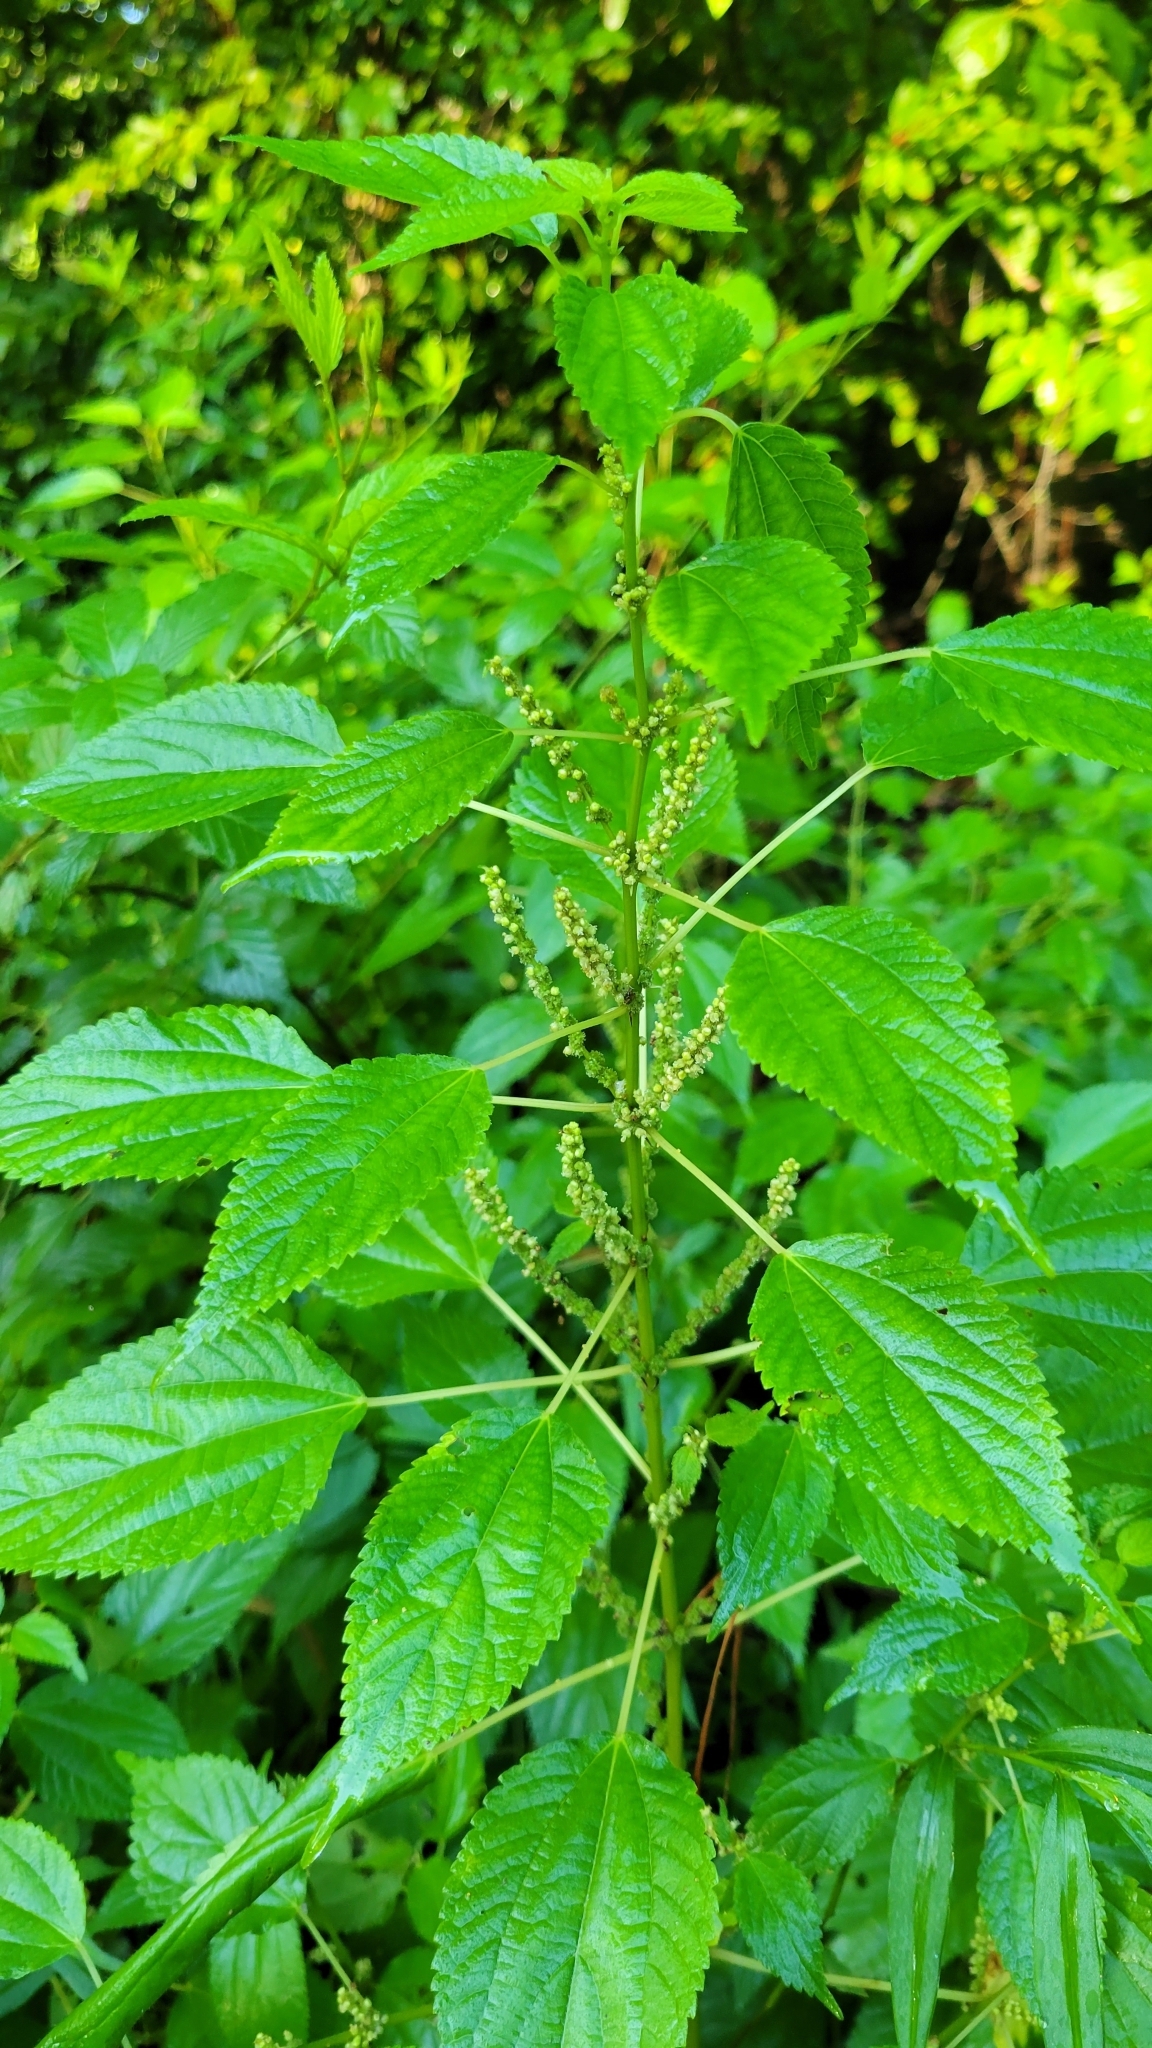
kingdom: Plantae
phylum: Tracheophyta
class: Magnoliopsida
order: Rosales
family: Urticaceae
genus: Boehmeria
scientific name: Boehmeria cylindrica
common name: Bog-hemp
